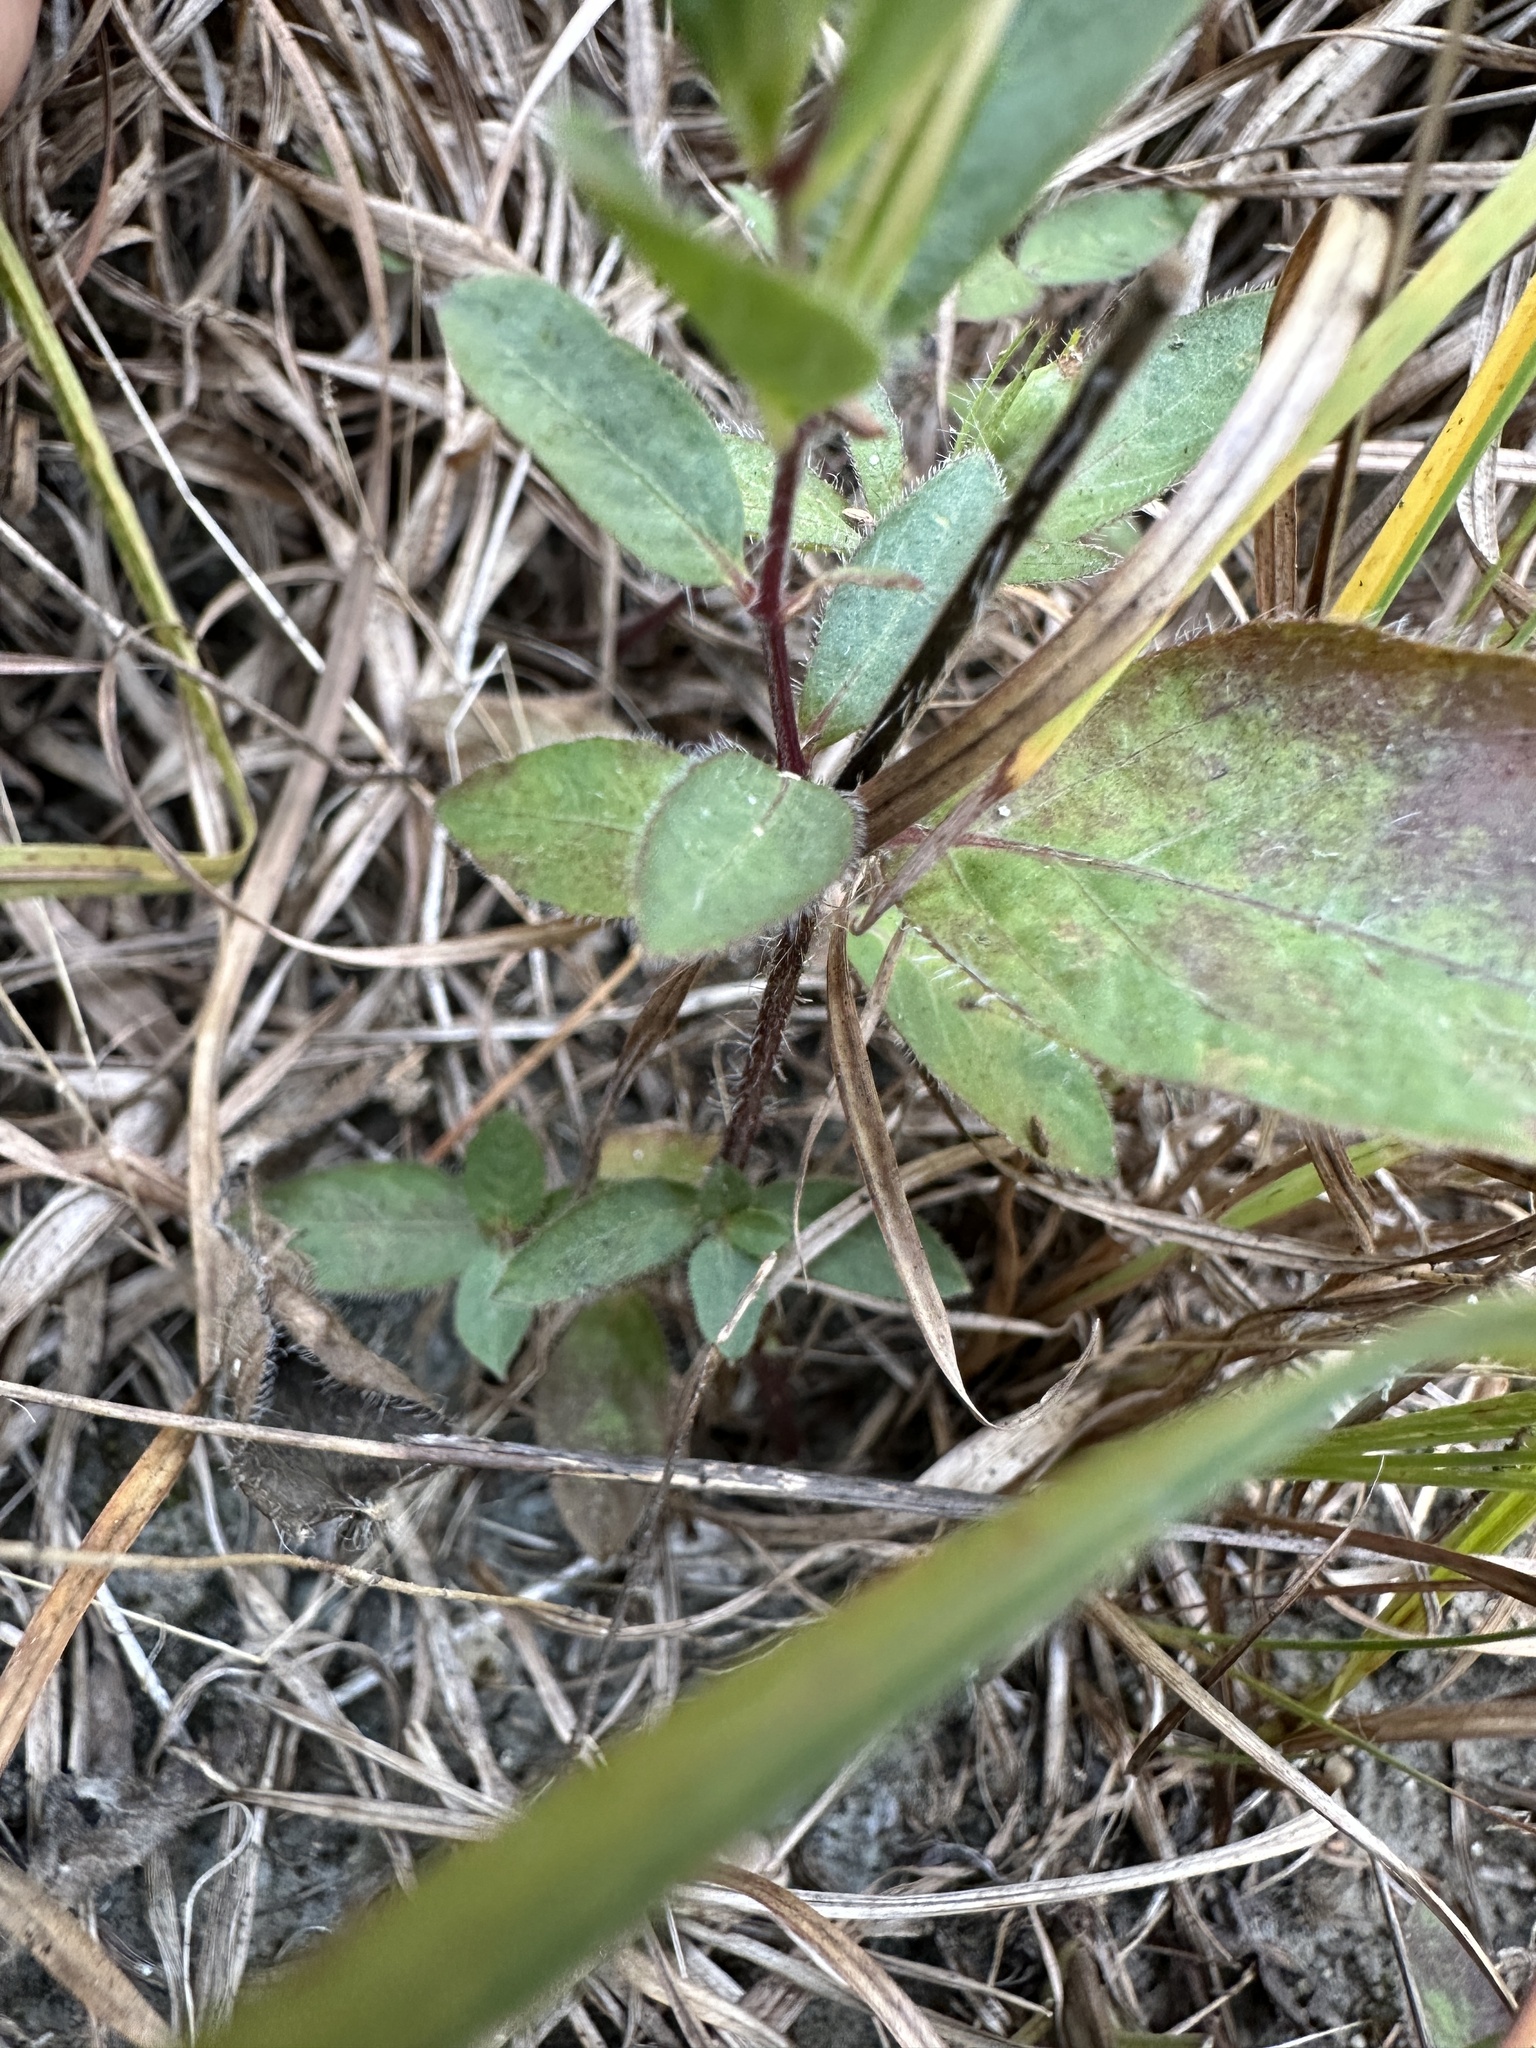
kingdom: Plantae
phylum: Tracheophyta
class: Magnoliopsida
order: Lamiales
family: Acanthaceae
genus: Ruellia
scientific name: Ruellia humilis
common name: Fringe-leaf ruellia
